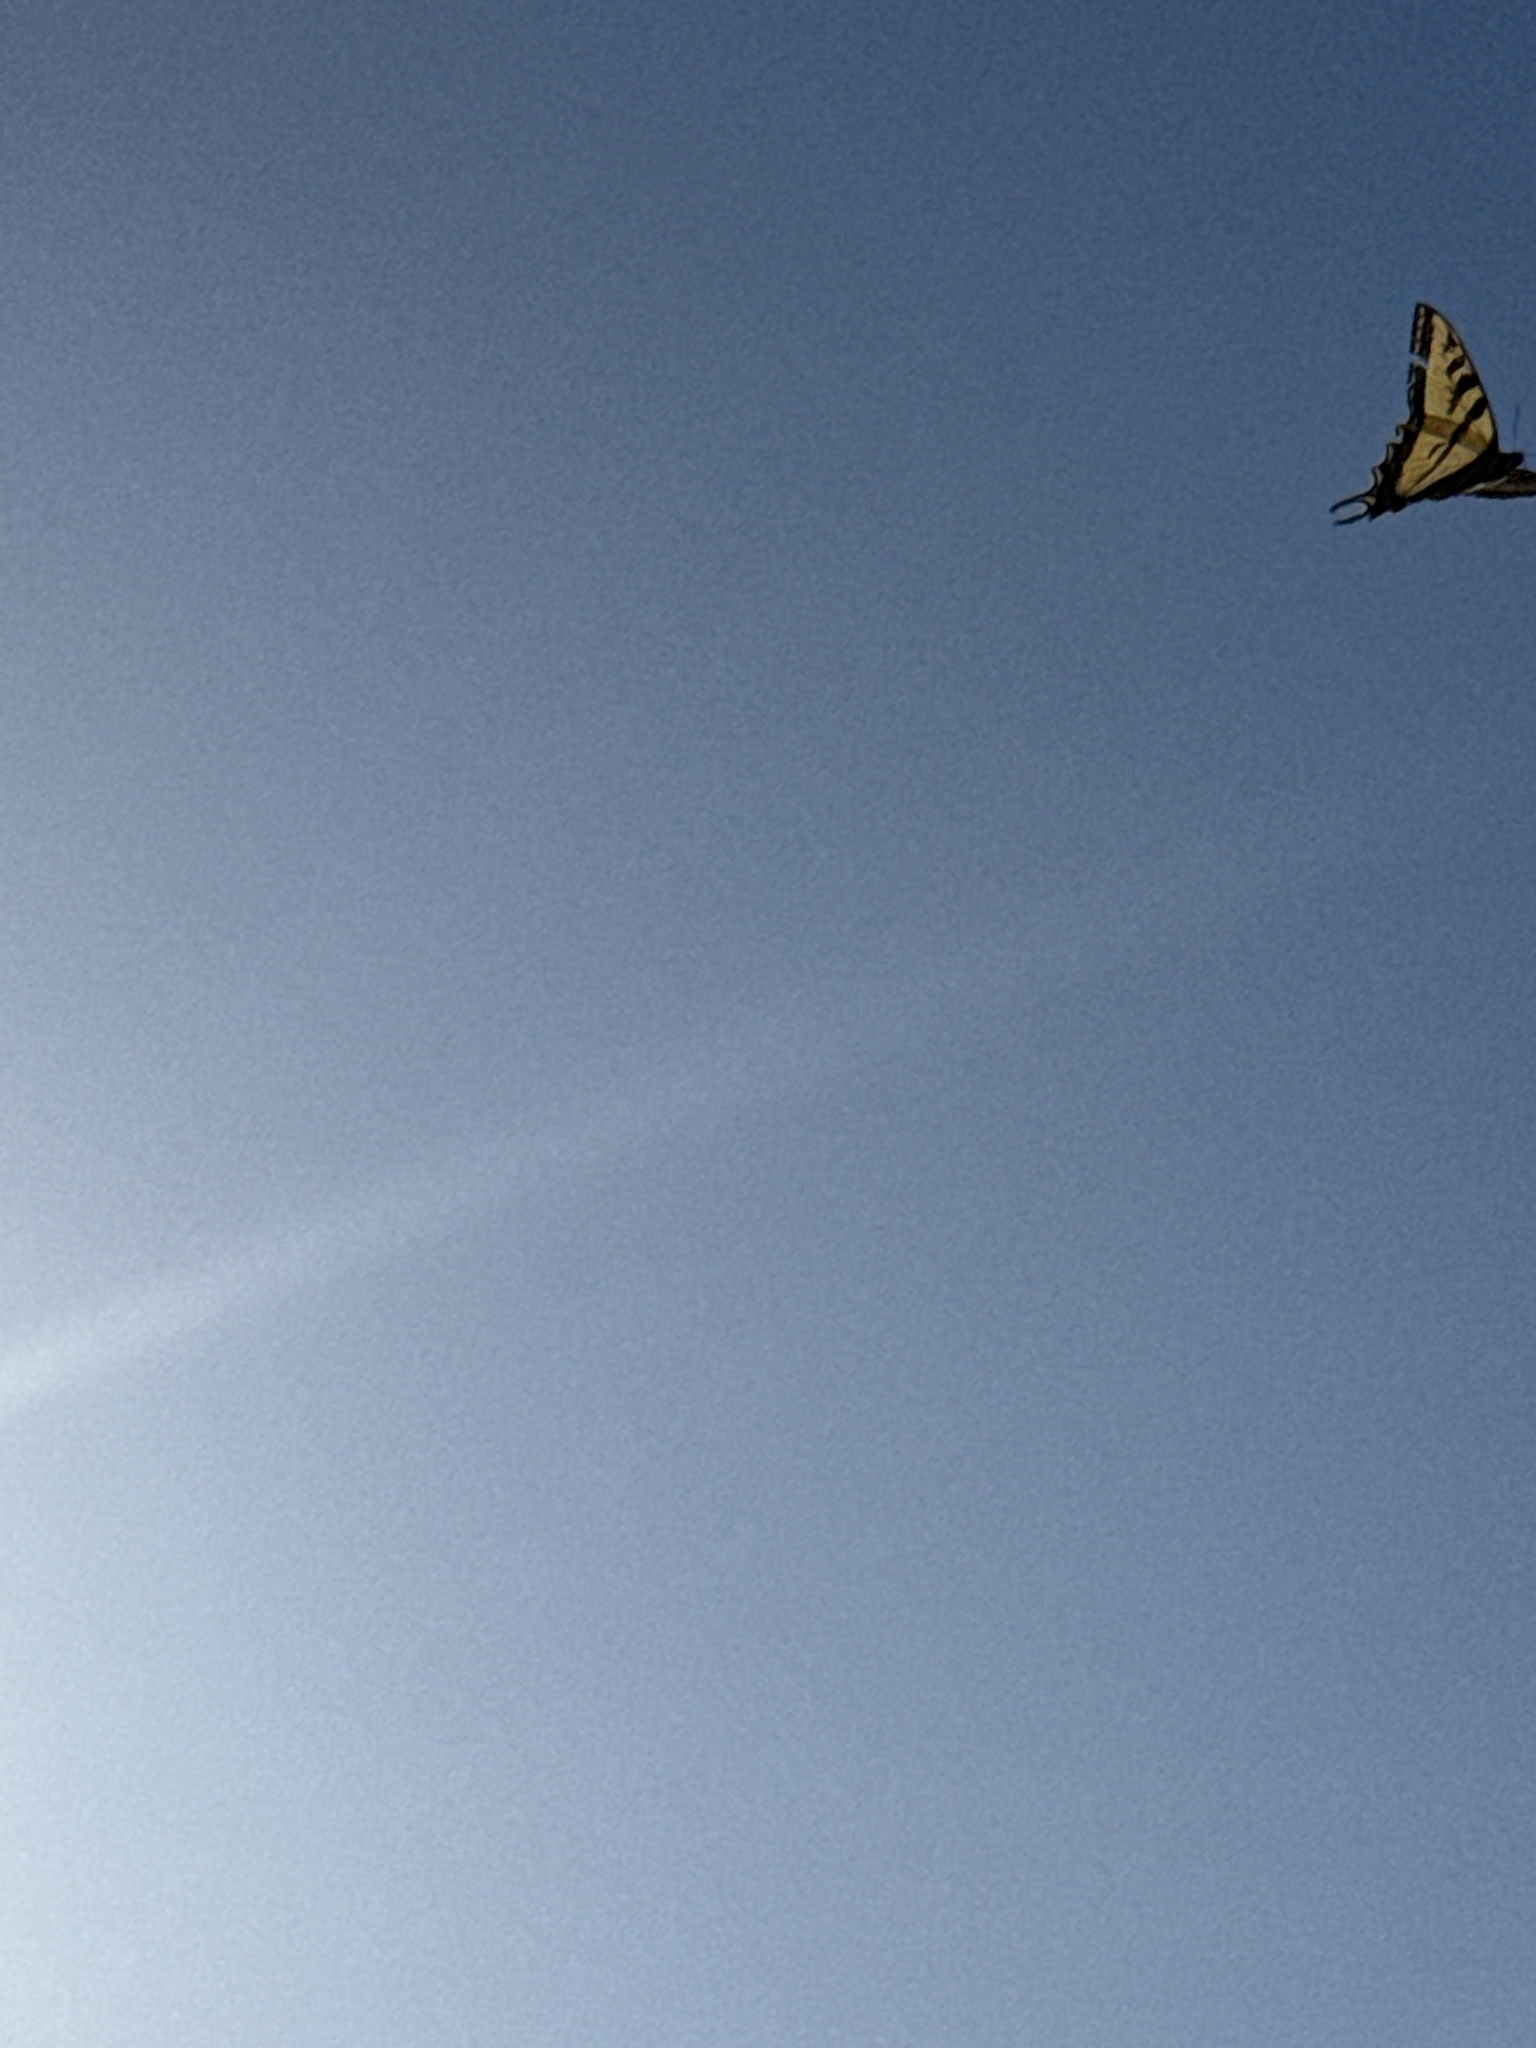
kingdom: Animalia
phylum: Arthropoda
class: Insecta
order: Lepidoptera
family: Papilionidae
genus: Papilio
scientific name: Papilio rutulus
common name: Western tiger swallowtail
